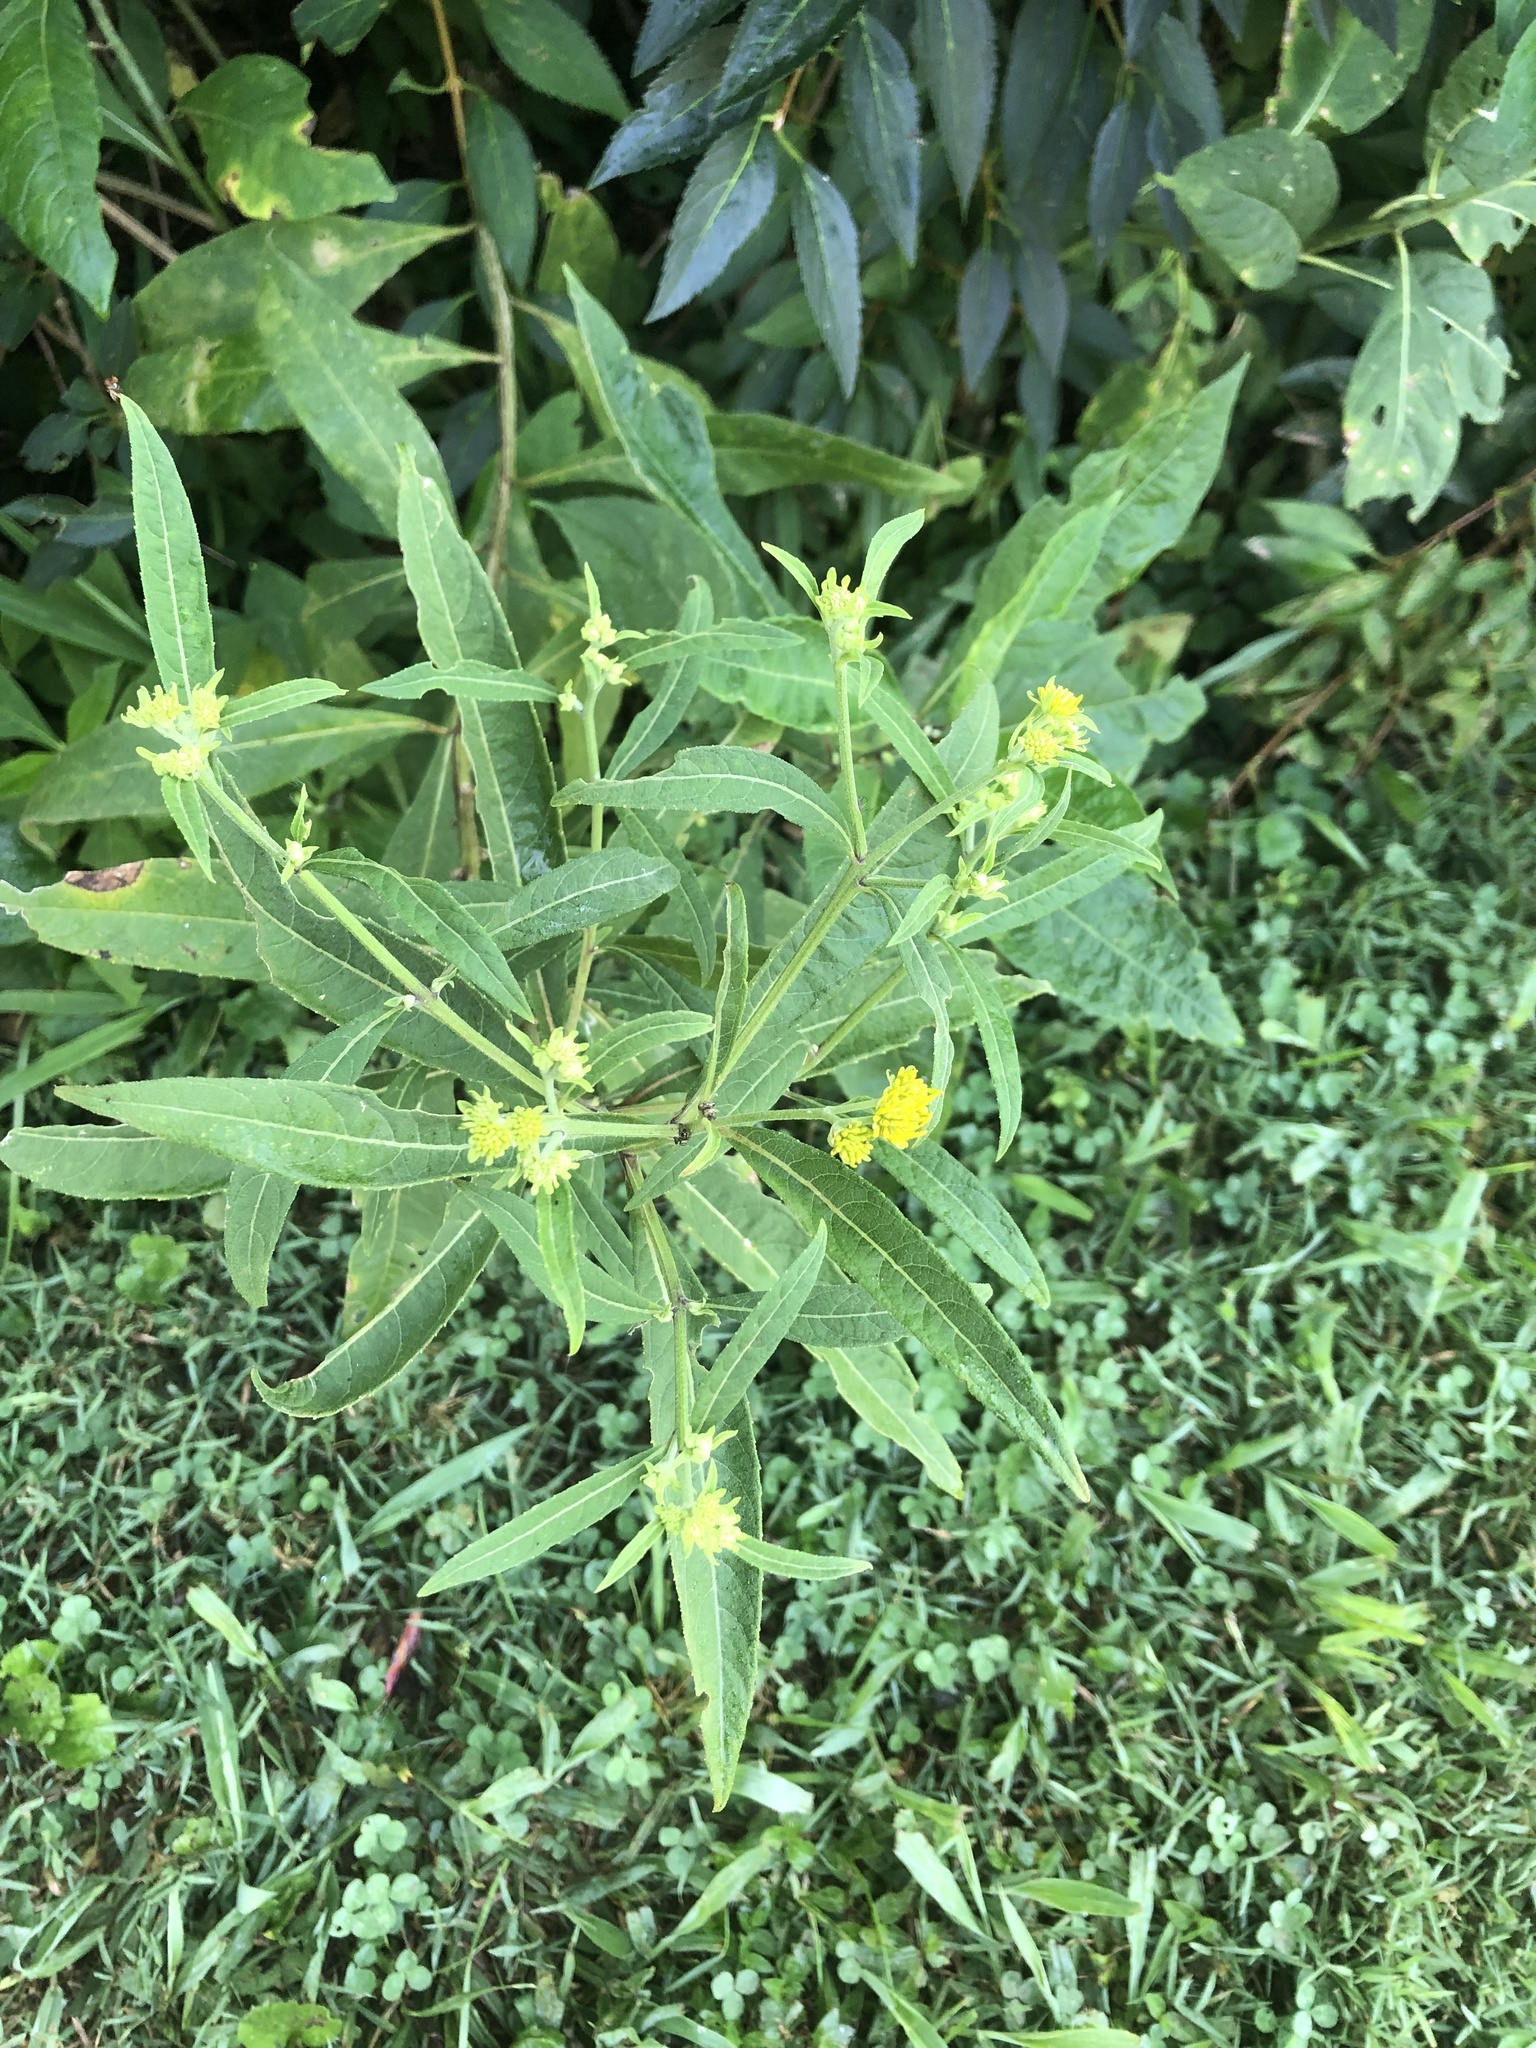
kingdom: Plantae
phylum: Tracheophyta
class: Magnoliopsida
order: Asterales
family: Asteraceae
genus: Verbesina
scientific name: Verbesina alternifolia
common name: Wingstem
